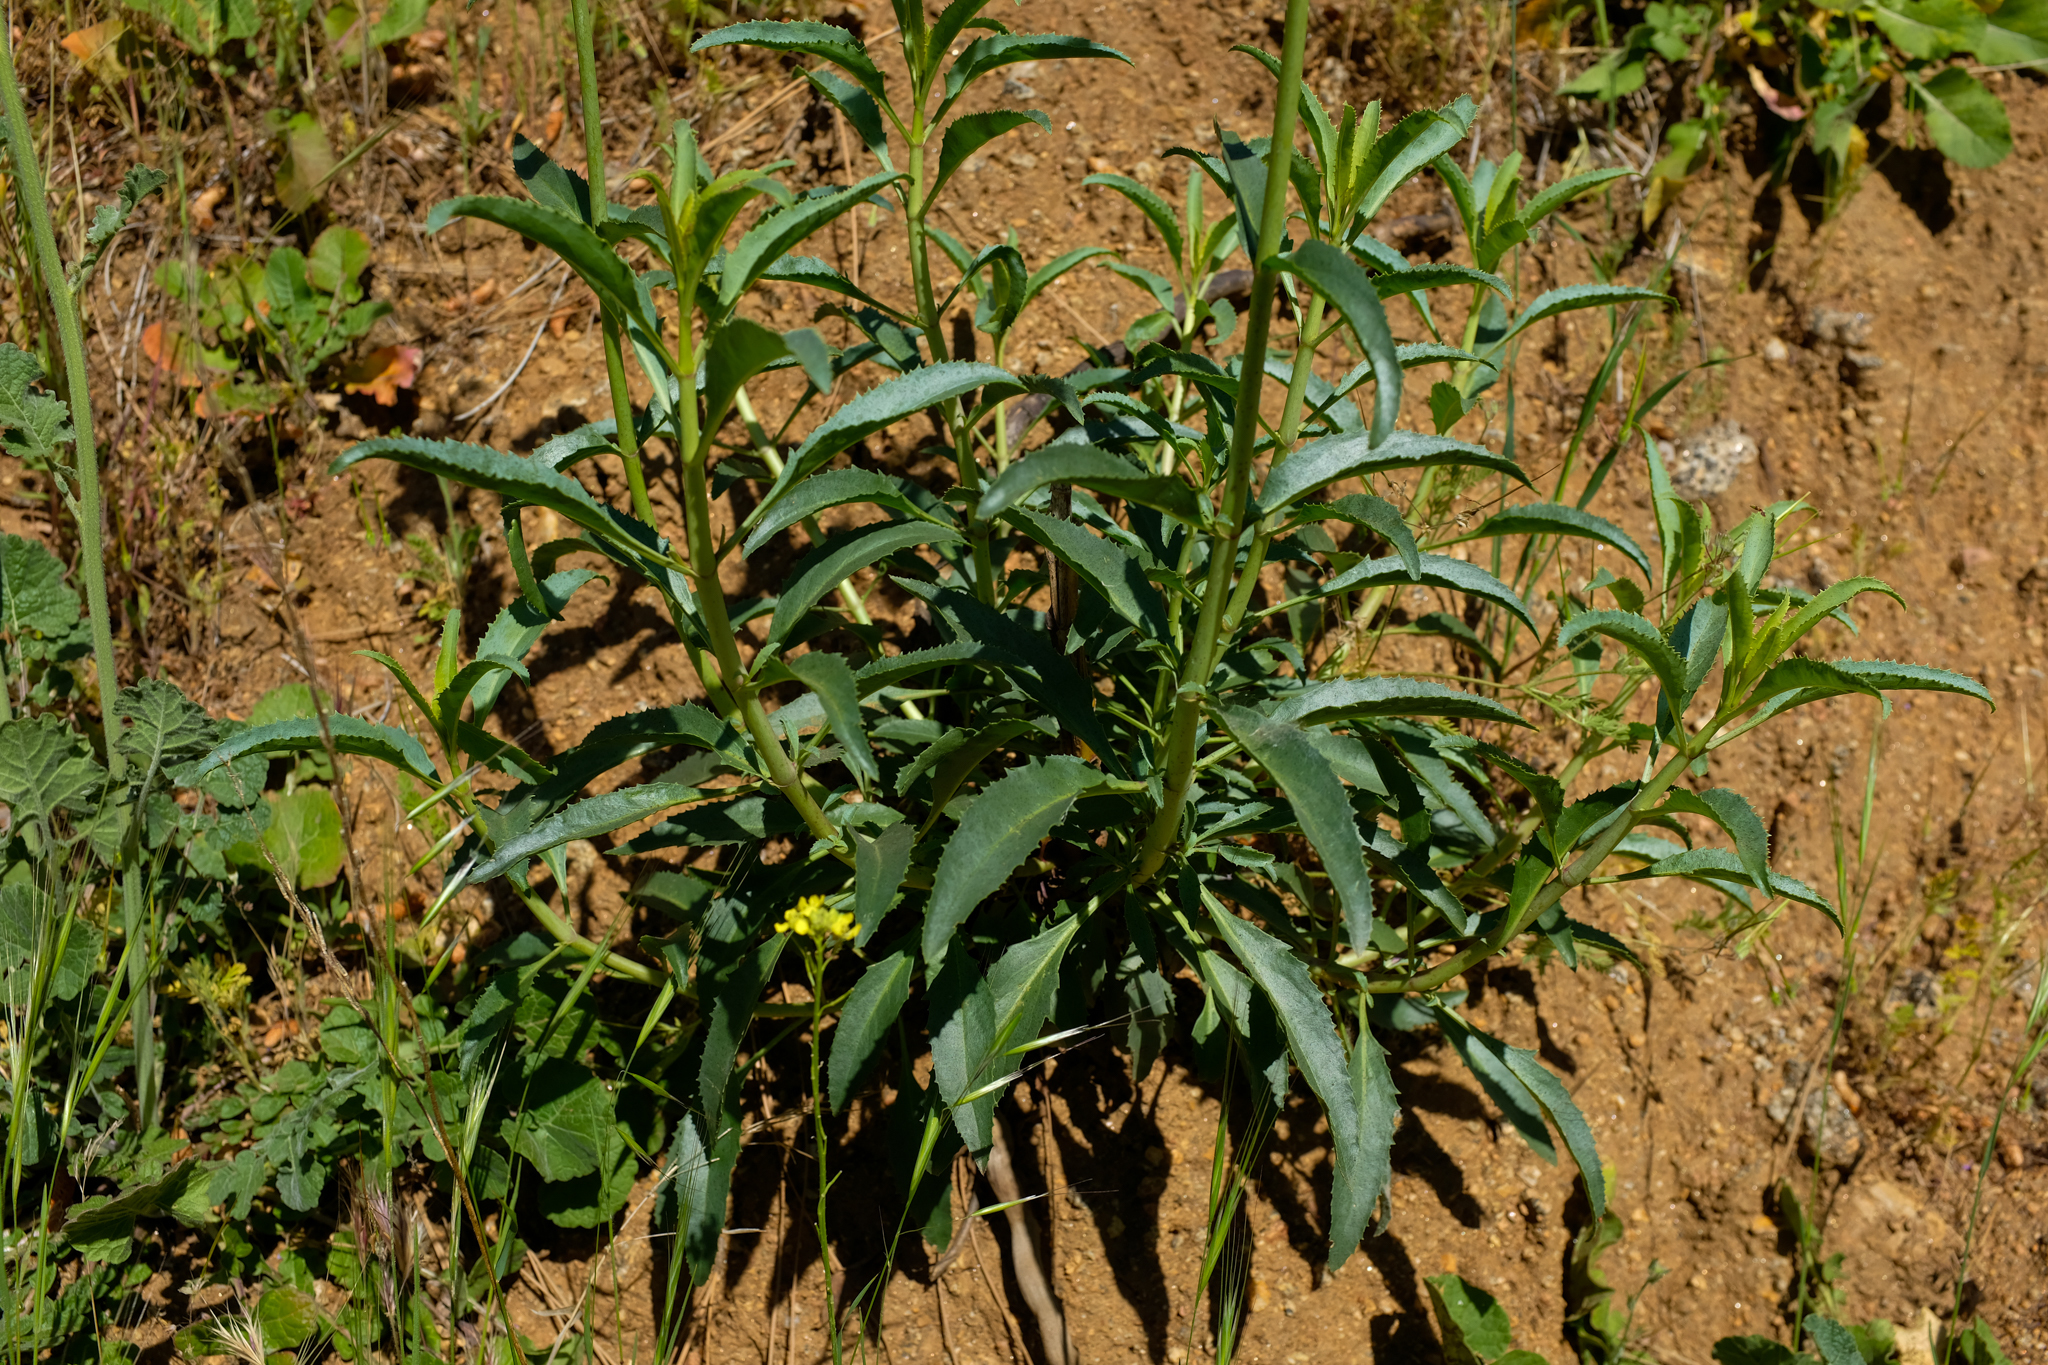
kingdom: Plantae
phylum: Tracheophyta
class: Magnoliopsida
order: Lamiales
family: Plantaginaceae
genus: Penstemon
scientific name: Penstemon grinnellii
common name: Grinnell's beardtongue
